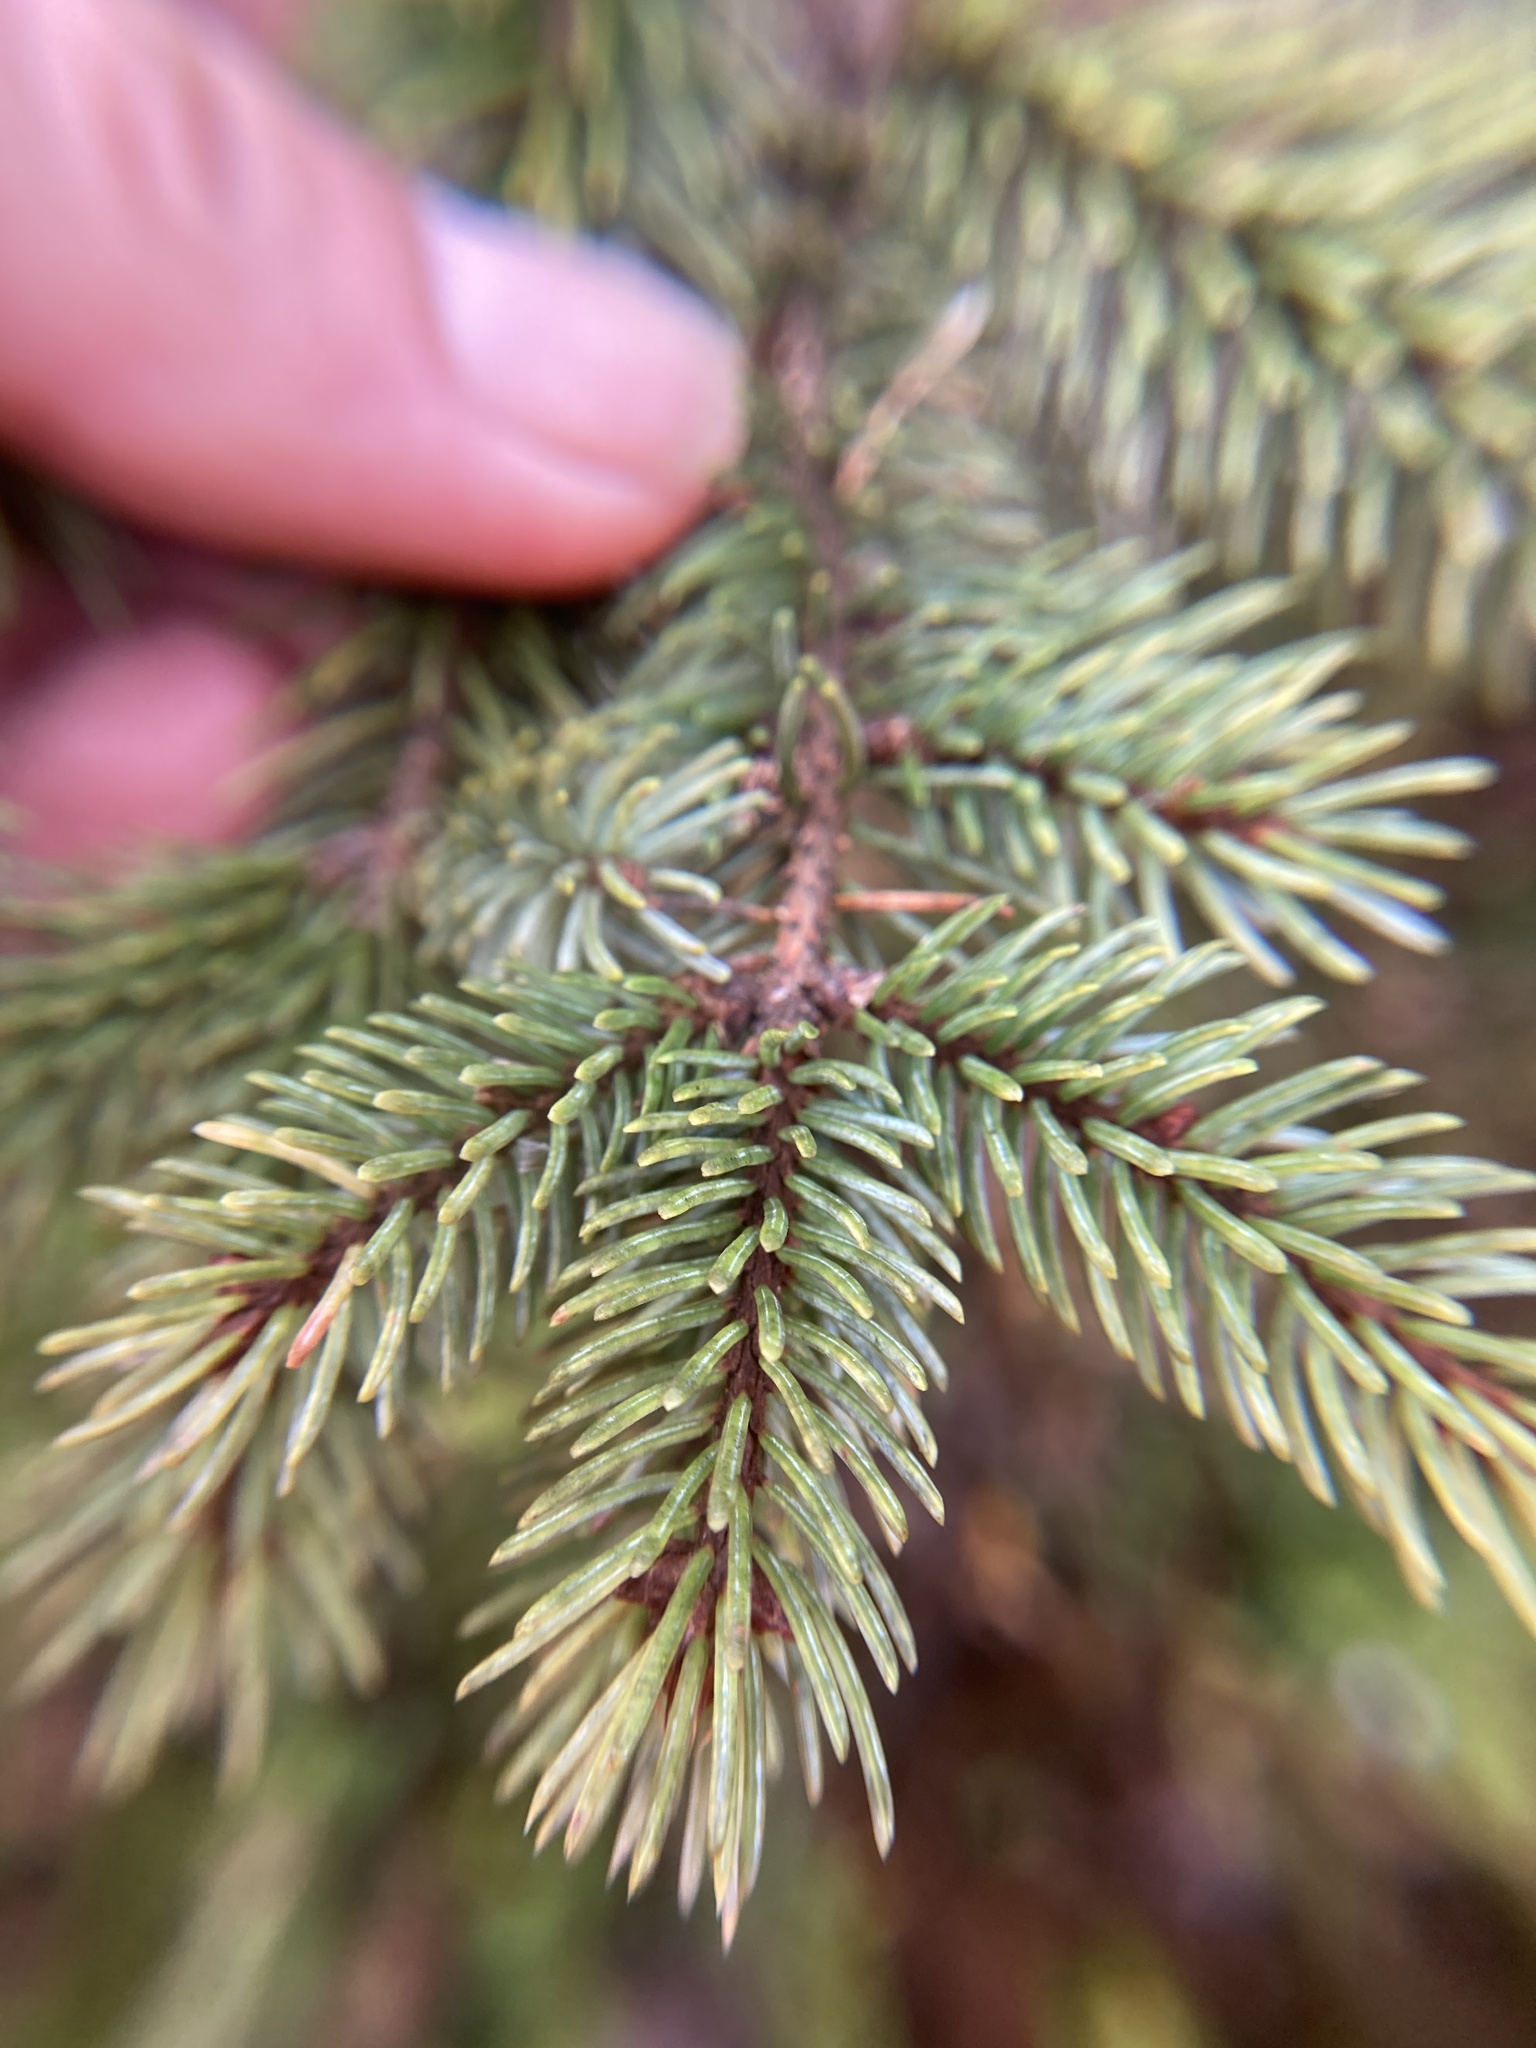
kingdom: Plantae
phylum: Tracheophyta
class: Pinopsida
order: Pinales
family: Pinaceae
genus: Picea
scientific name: Picea mariana
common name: Black spruce
